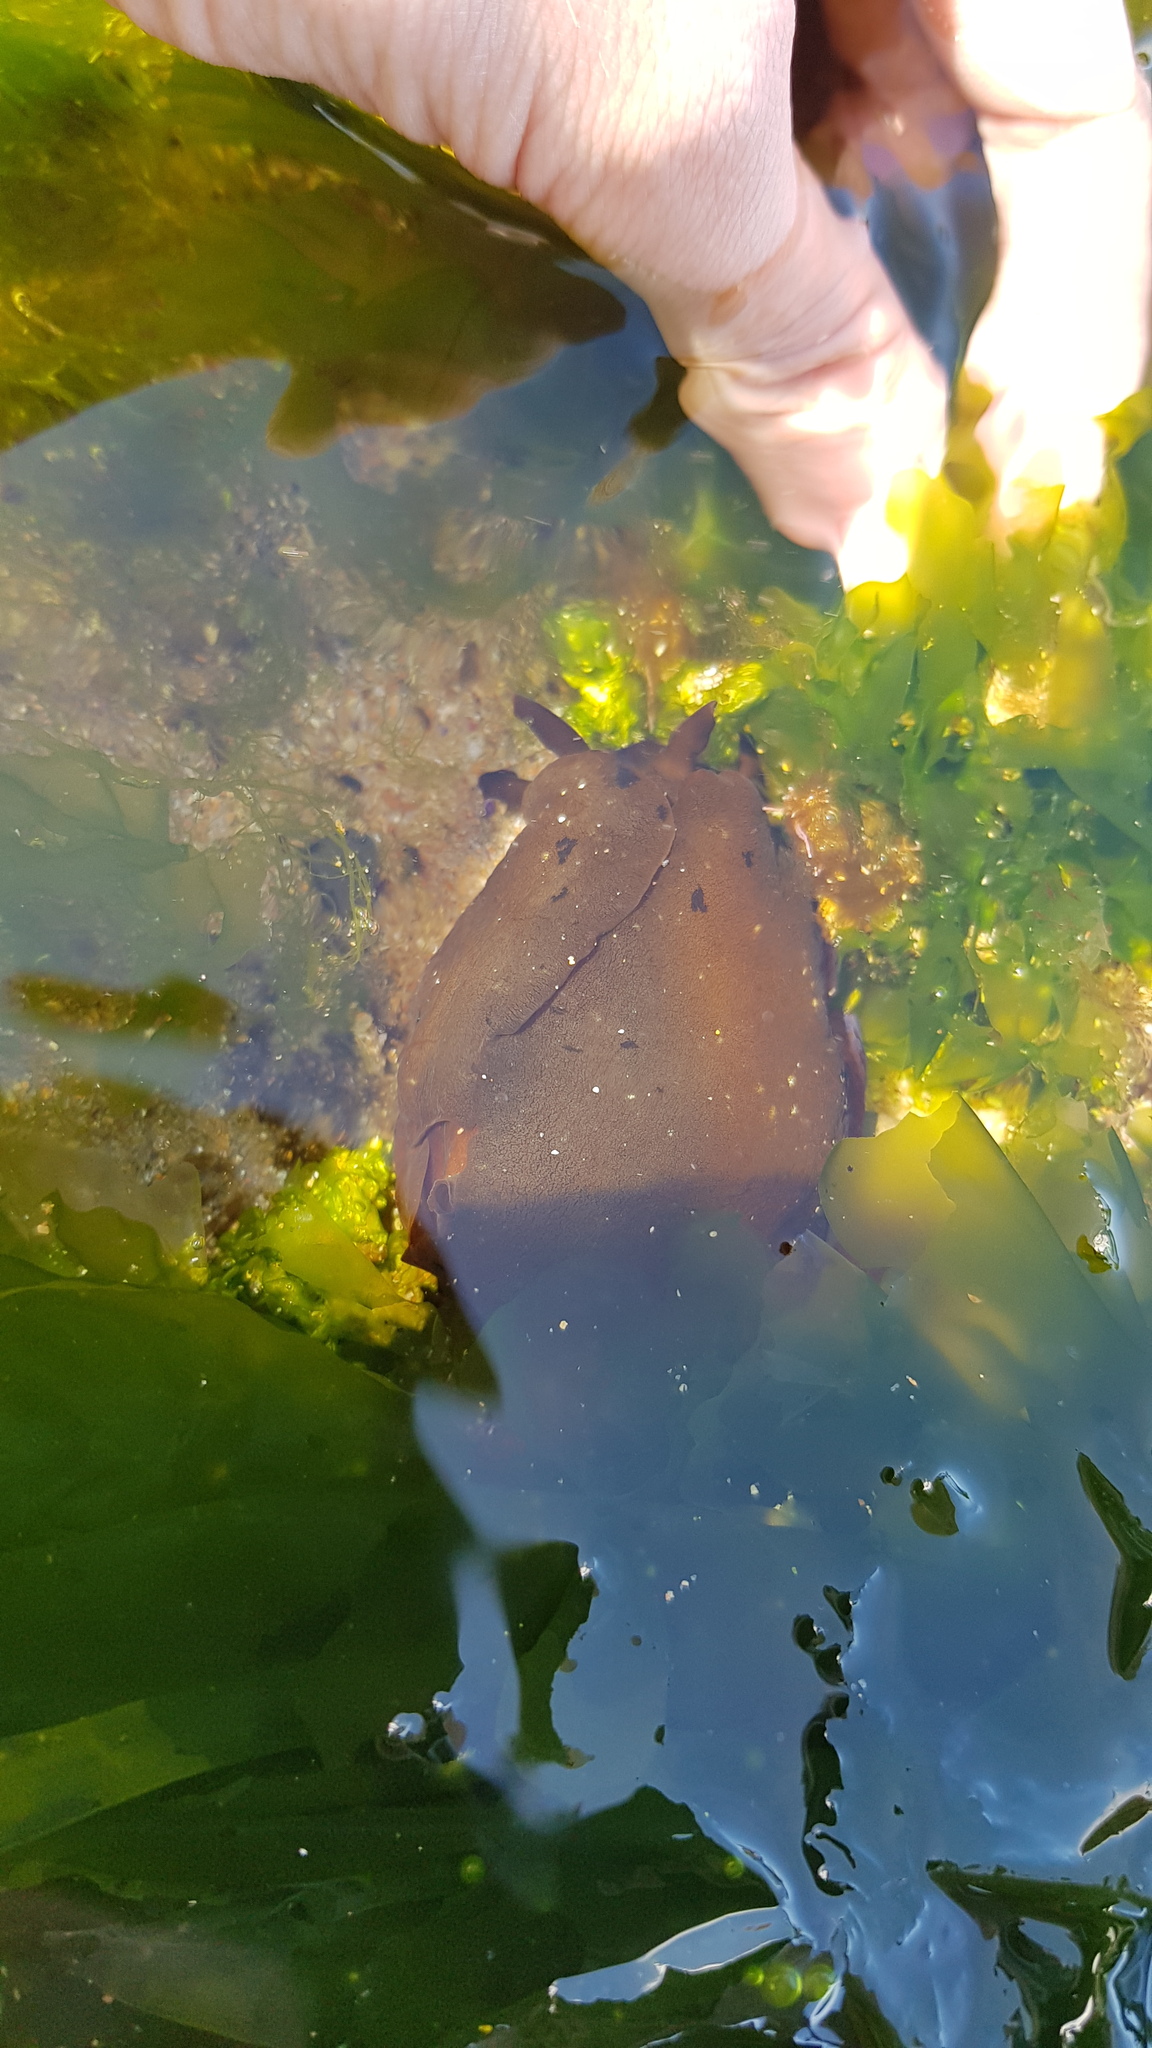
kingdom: Animalia
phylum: Mollusca
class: Gastropoda
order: Aplysiida
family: Aplysiidae
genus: Aplysia
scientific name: Aplysia juliana
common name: Walking sea hare
